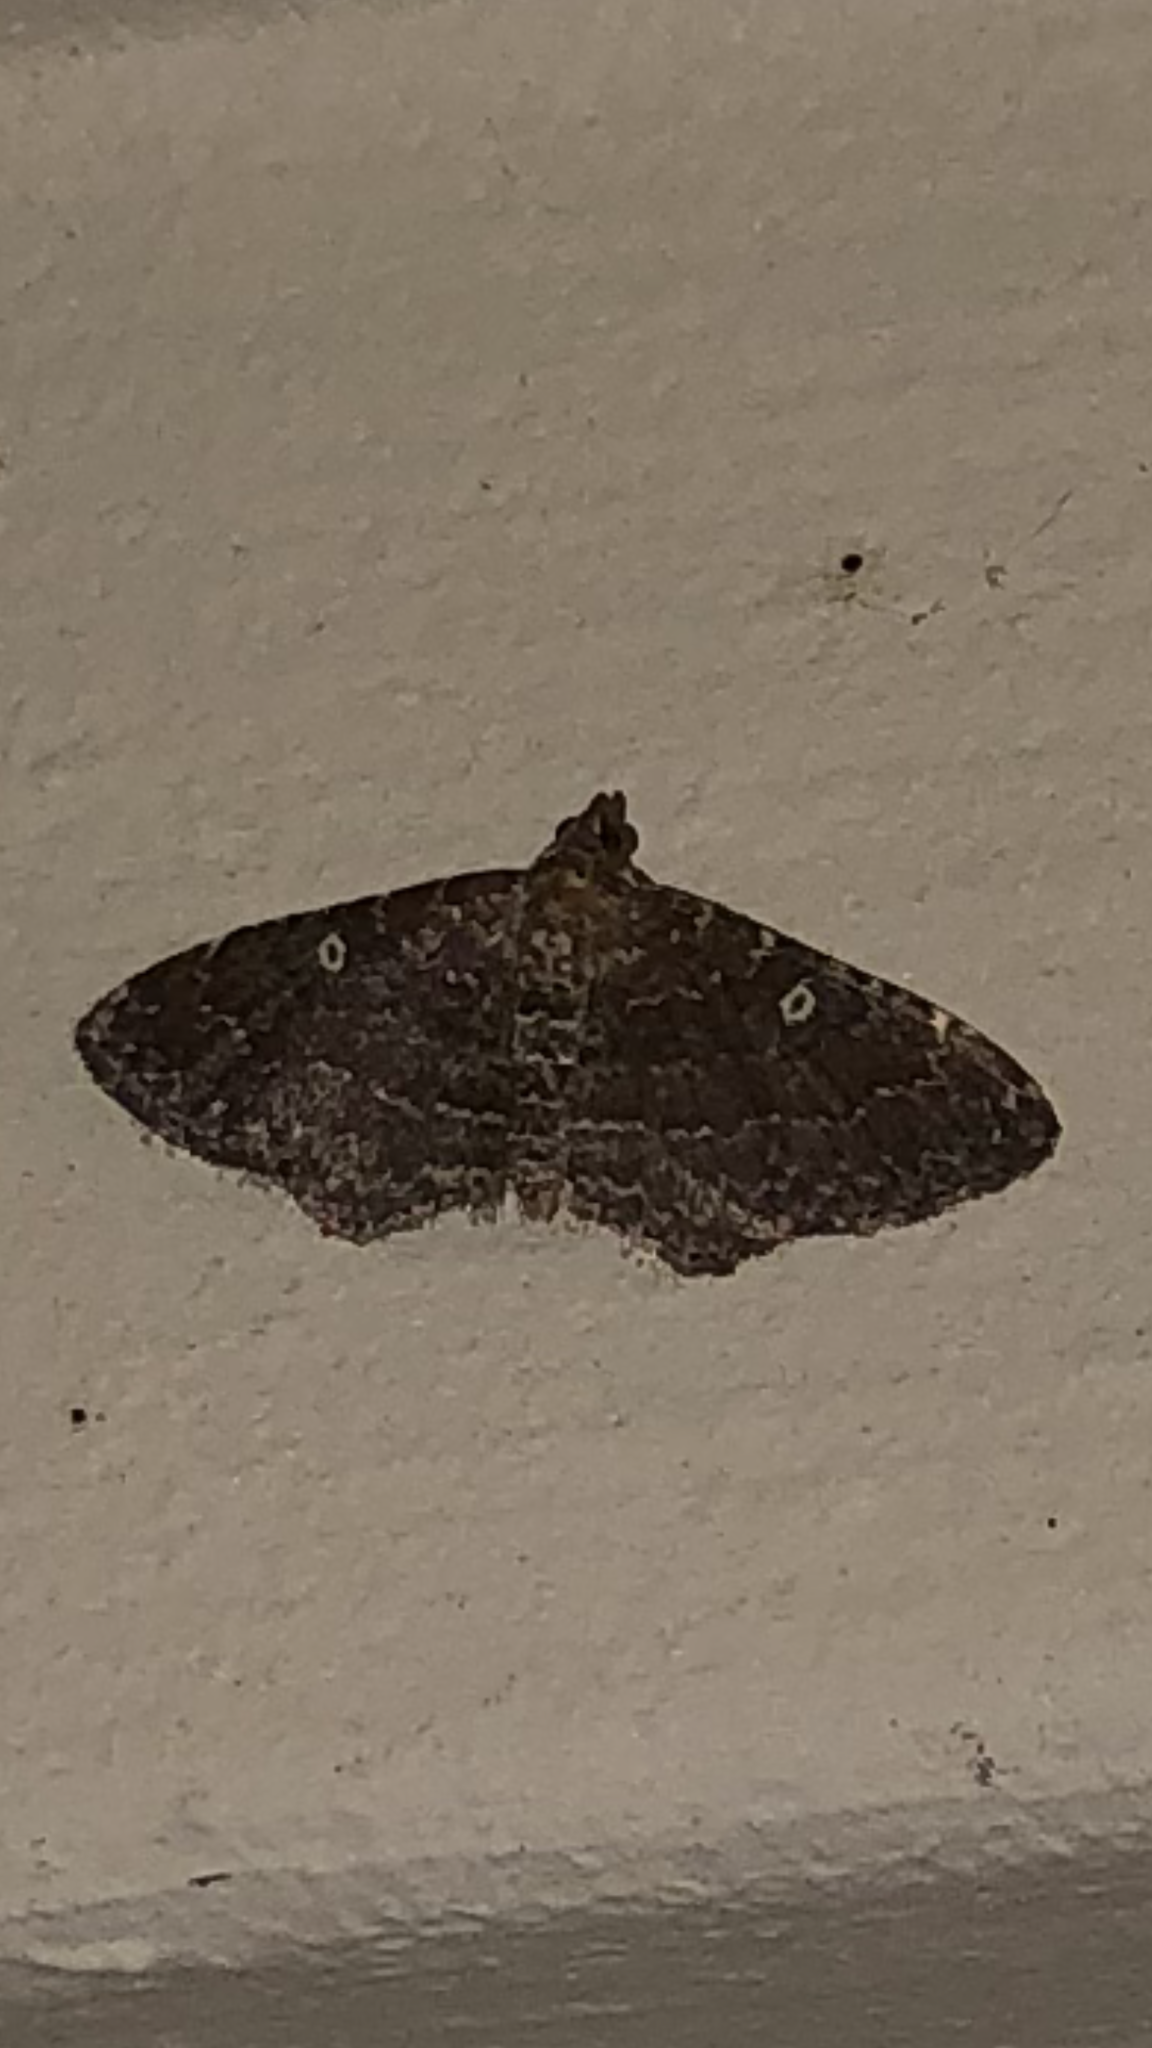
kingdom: Animalia
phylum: Arthropoda
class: Insecta
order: Lepidoptera
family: Geometridae
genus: Orthonama
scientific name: Orthonama obstipata
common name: The gem
